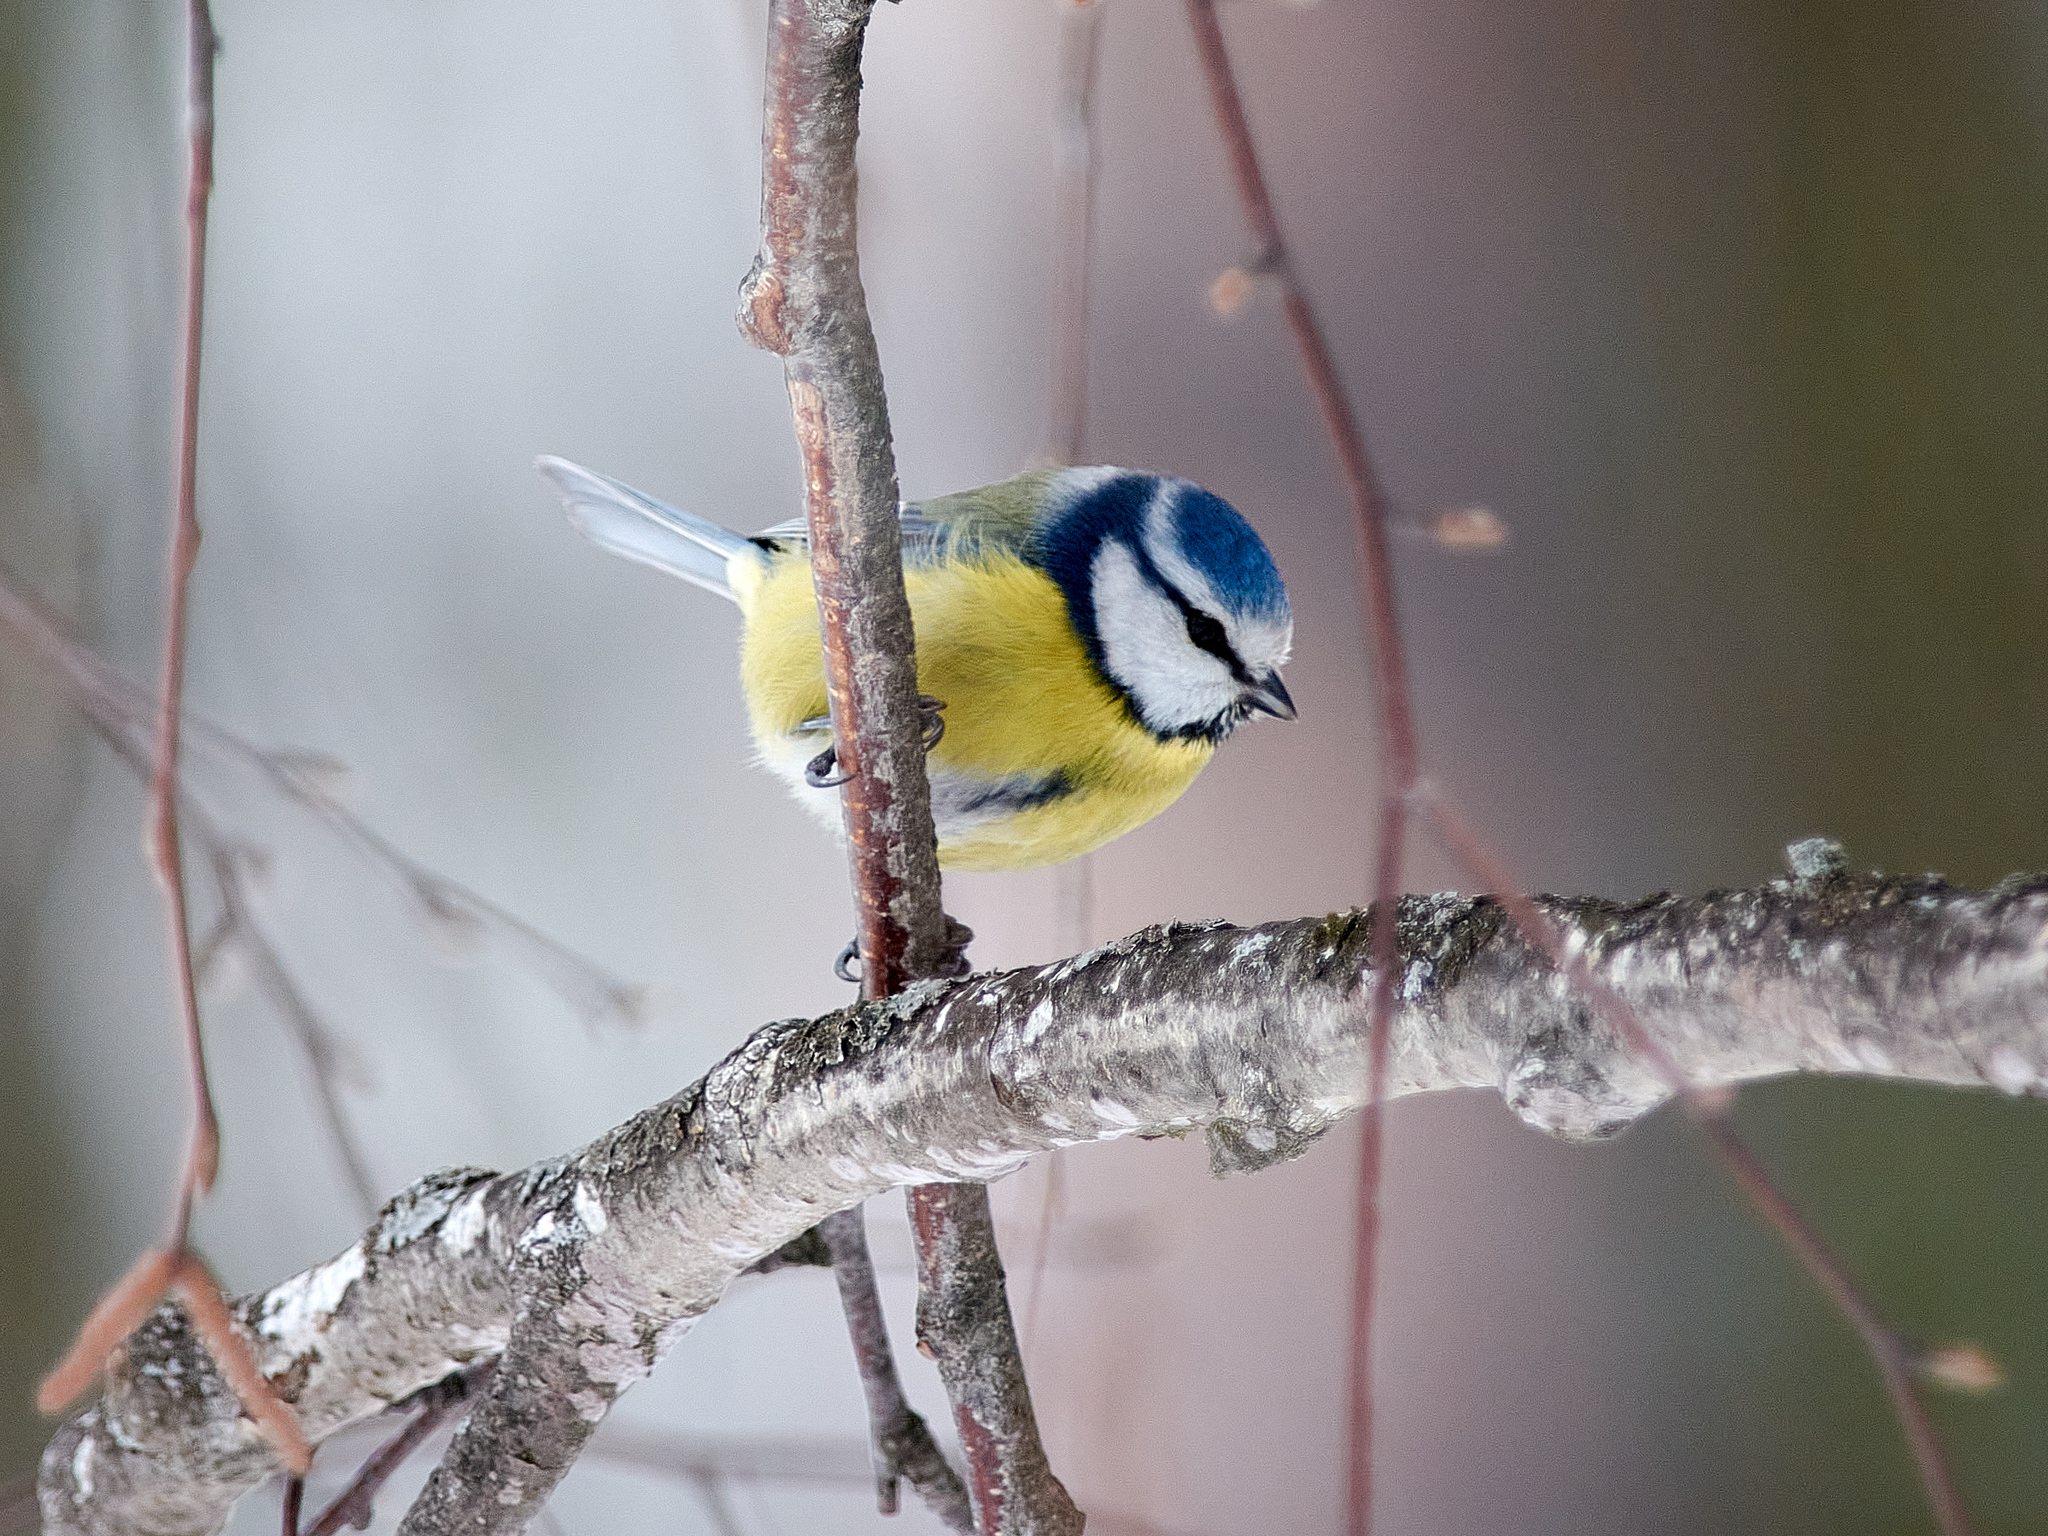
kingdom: Animalia
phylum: Chordata
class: Aves
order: Passeriformes
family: Paridae
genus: Cyanistes
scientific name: Cyanistes caeruleus
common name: Eurasian blue tit
